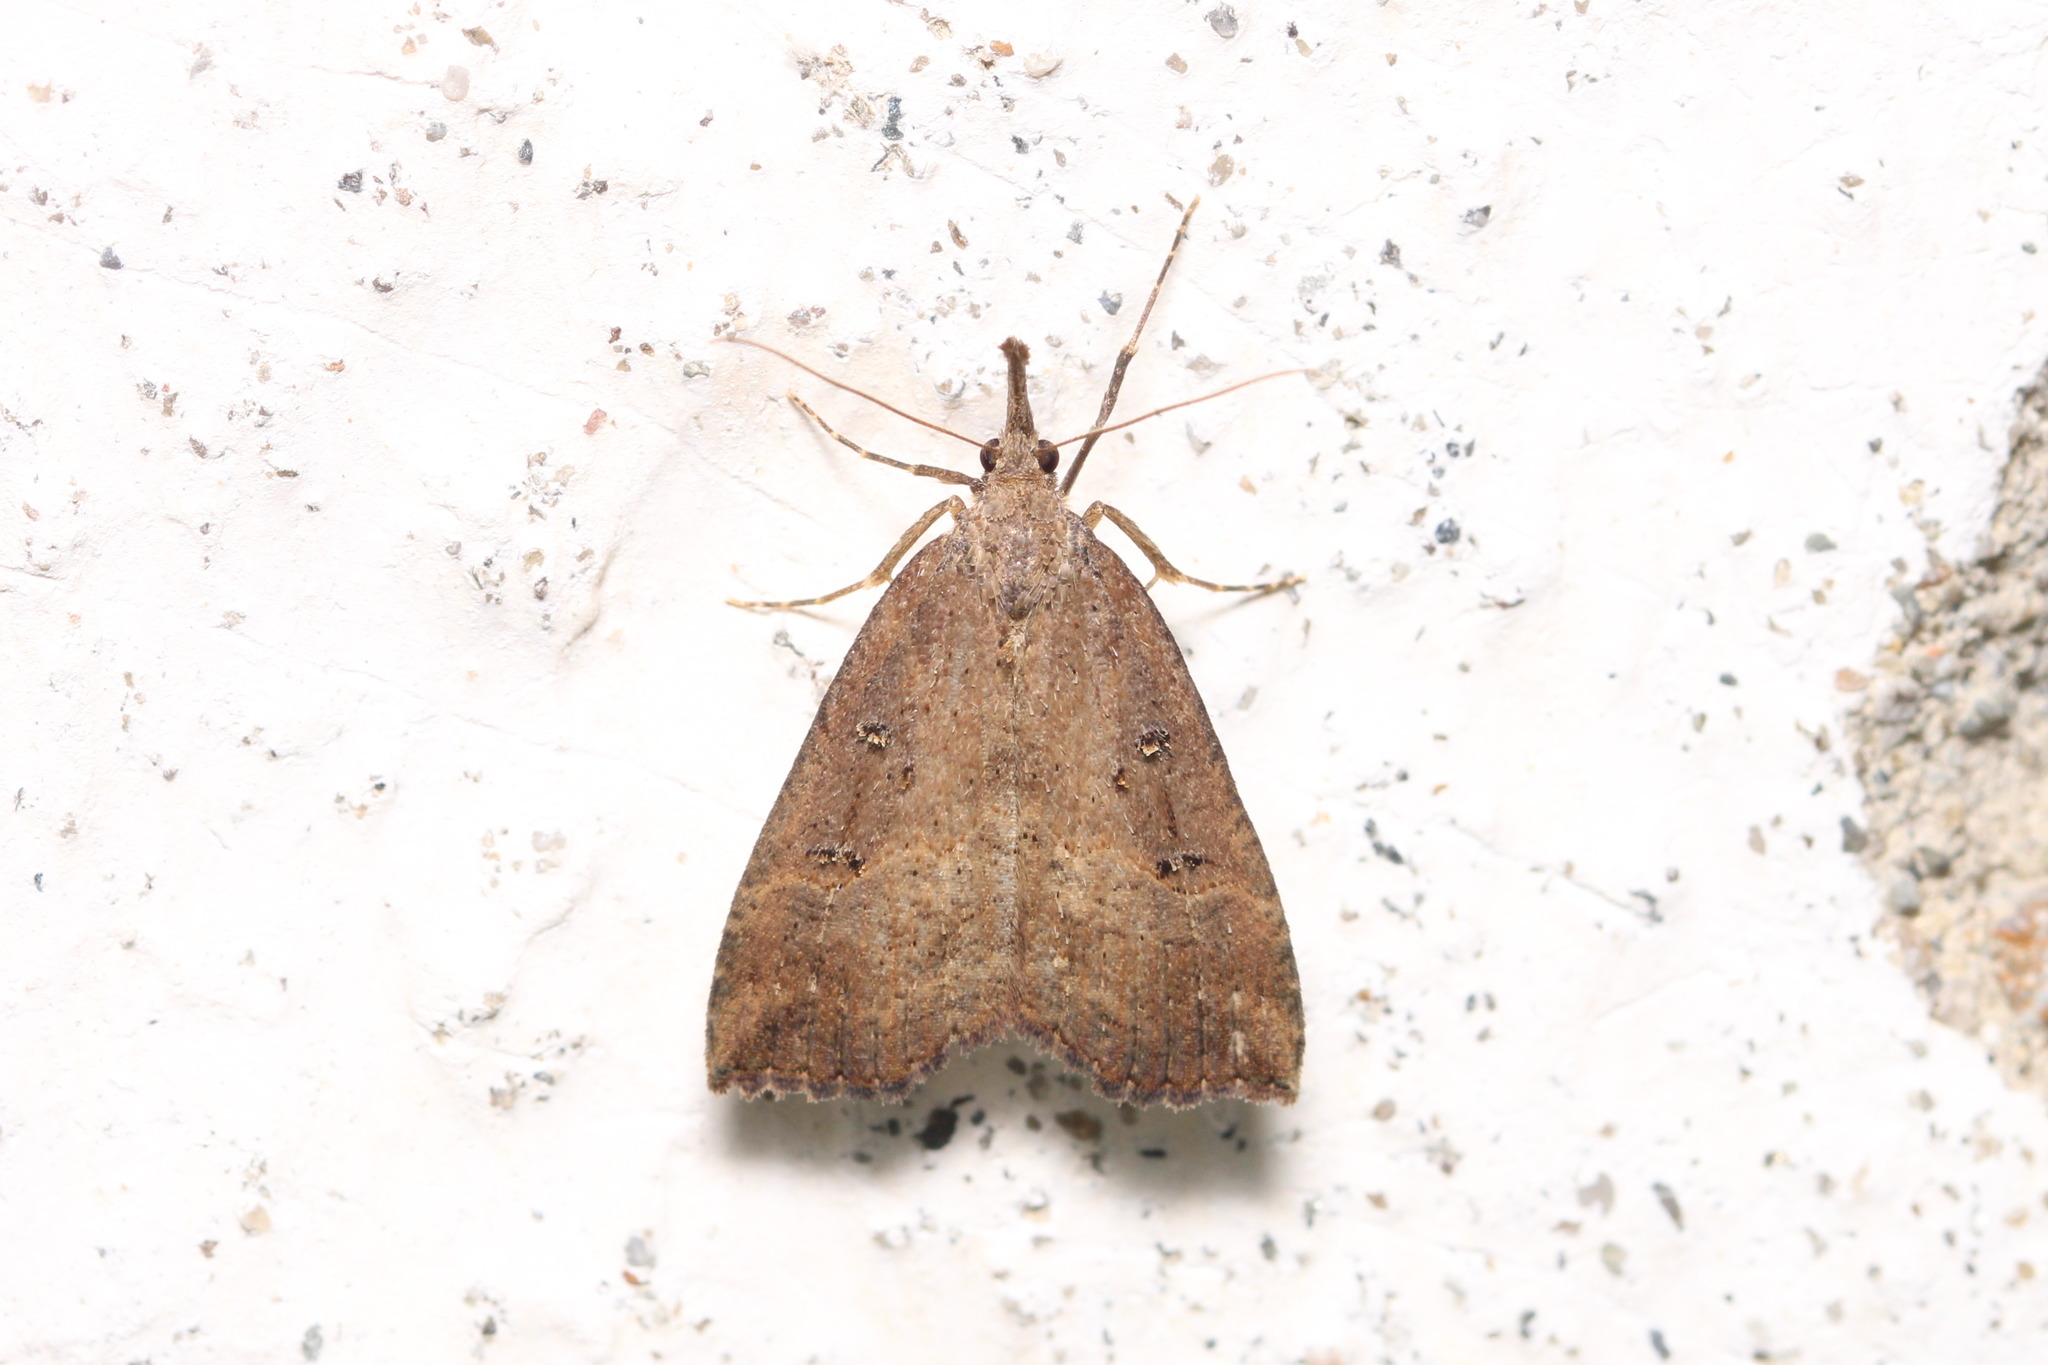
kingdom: Animalia
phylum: Arthropoda
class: Insecta
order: Lepidoptera
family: Erebidae
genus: Hypena
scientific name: Hypena rostralis
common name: Buttoned snout
